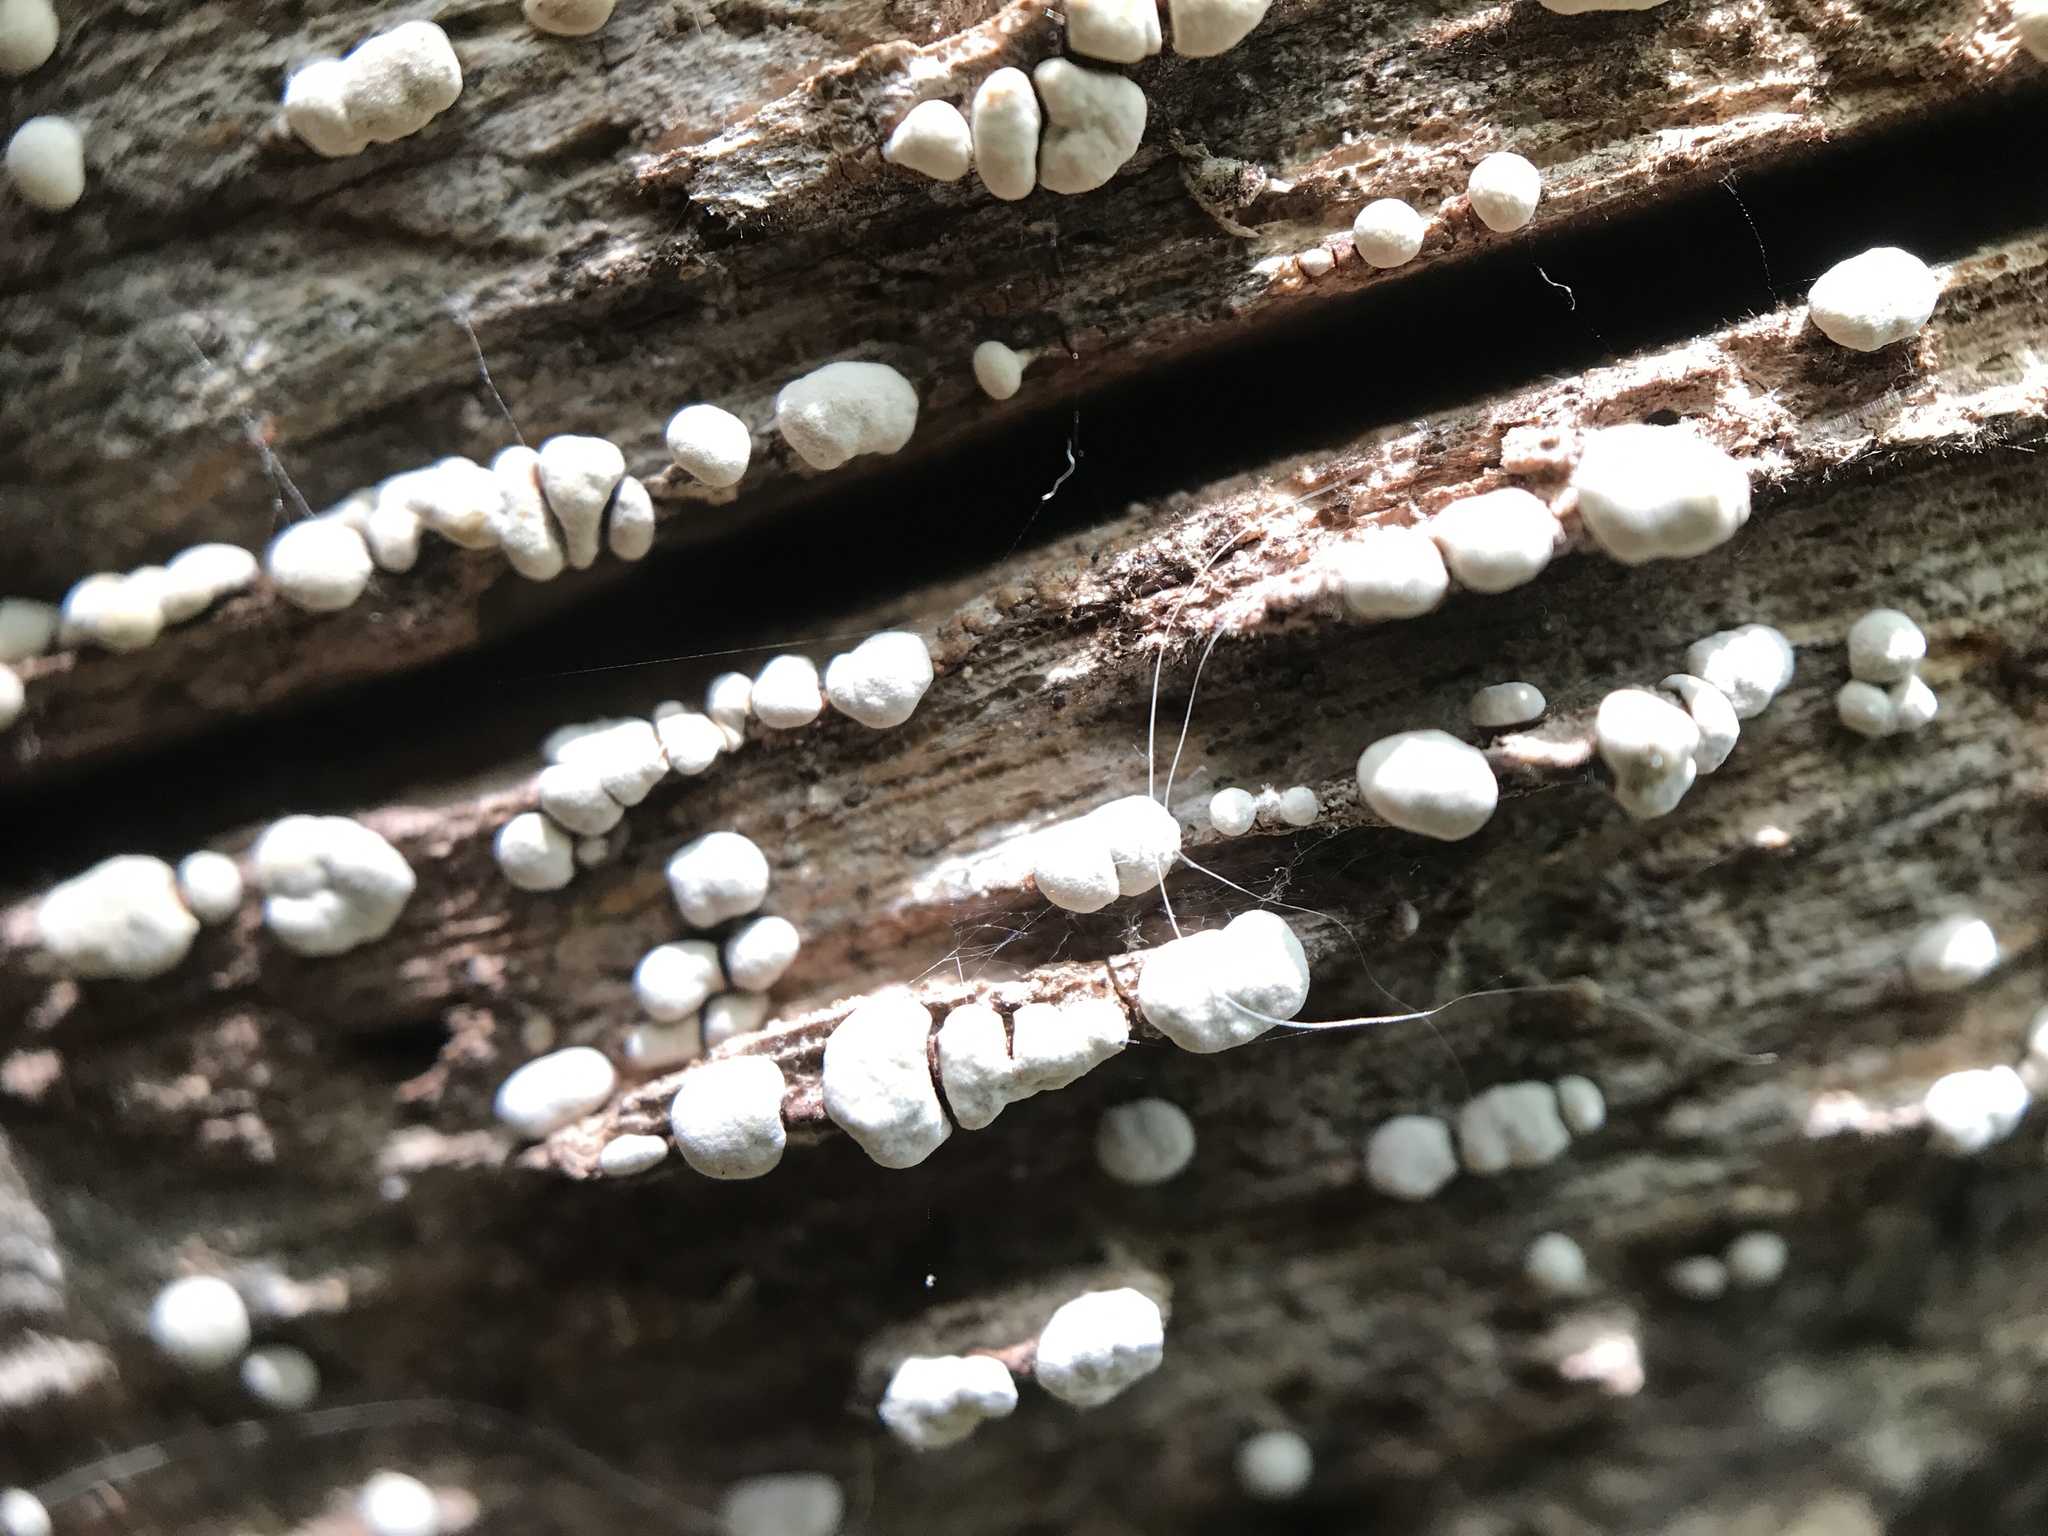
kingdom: Fungi
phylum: Basidiomycota
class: Agaricomycetes
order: Russulales
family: Stereaceae
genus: Xylobolus
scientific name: Xylobolus frustulatus
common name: Ceramic parchment
